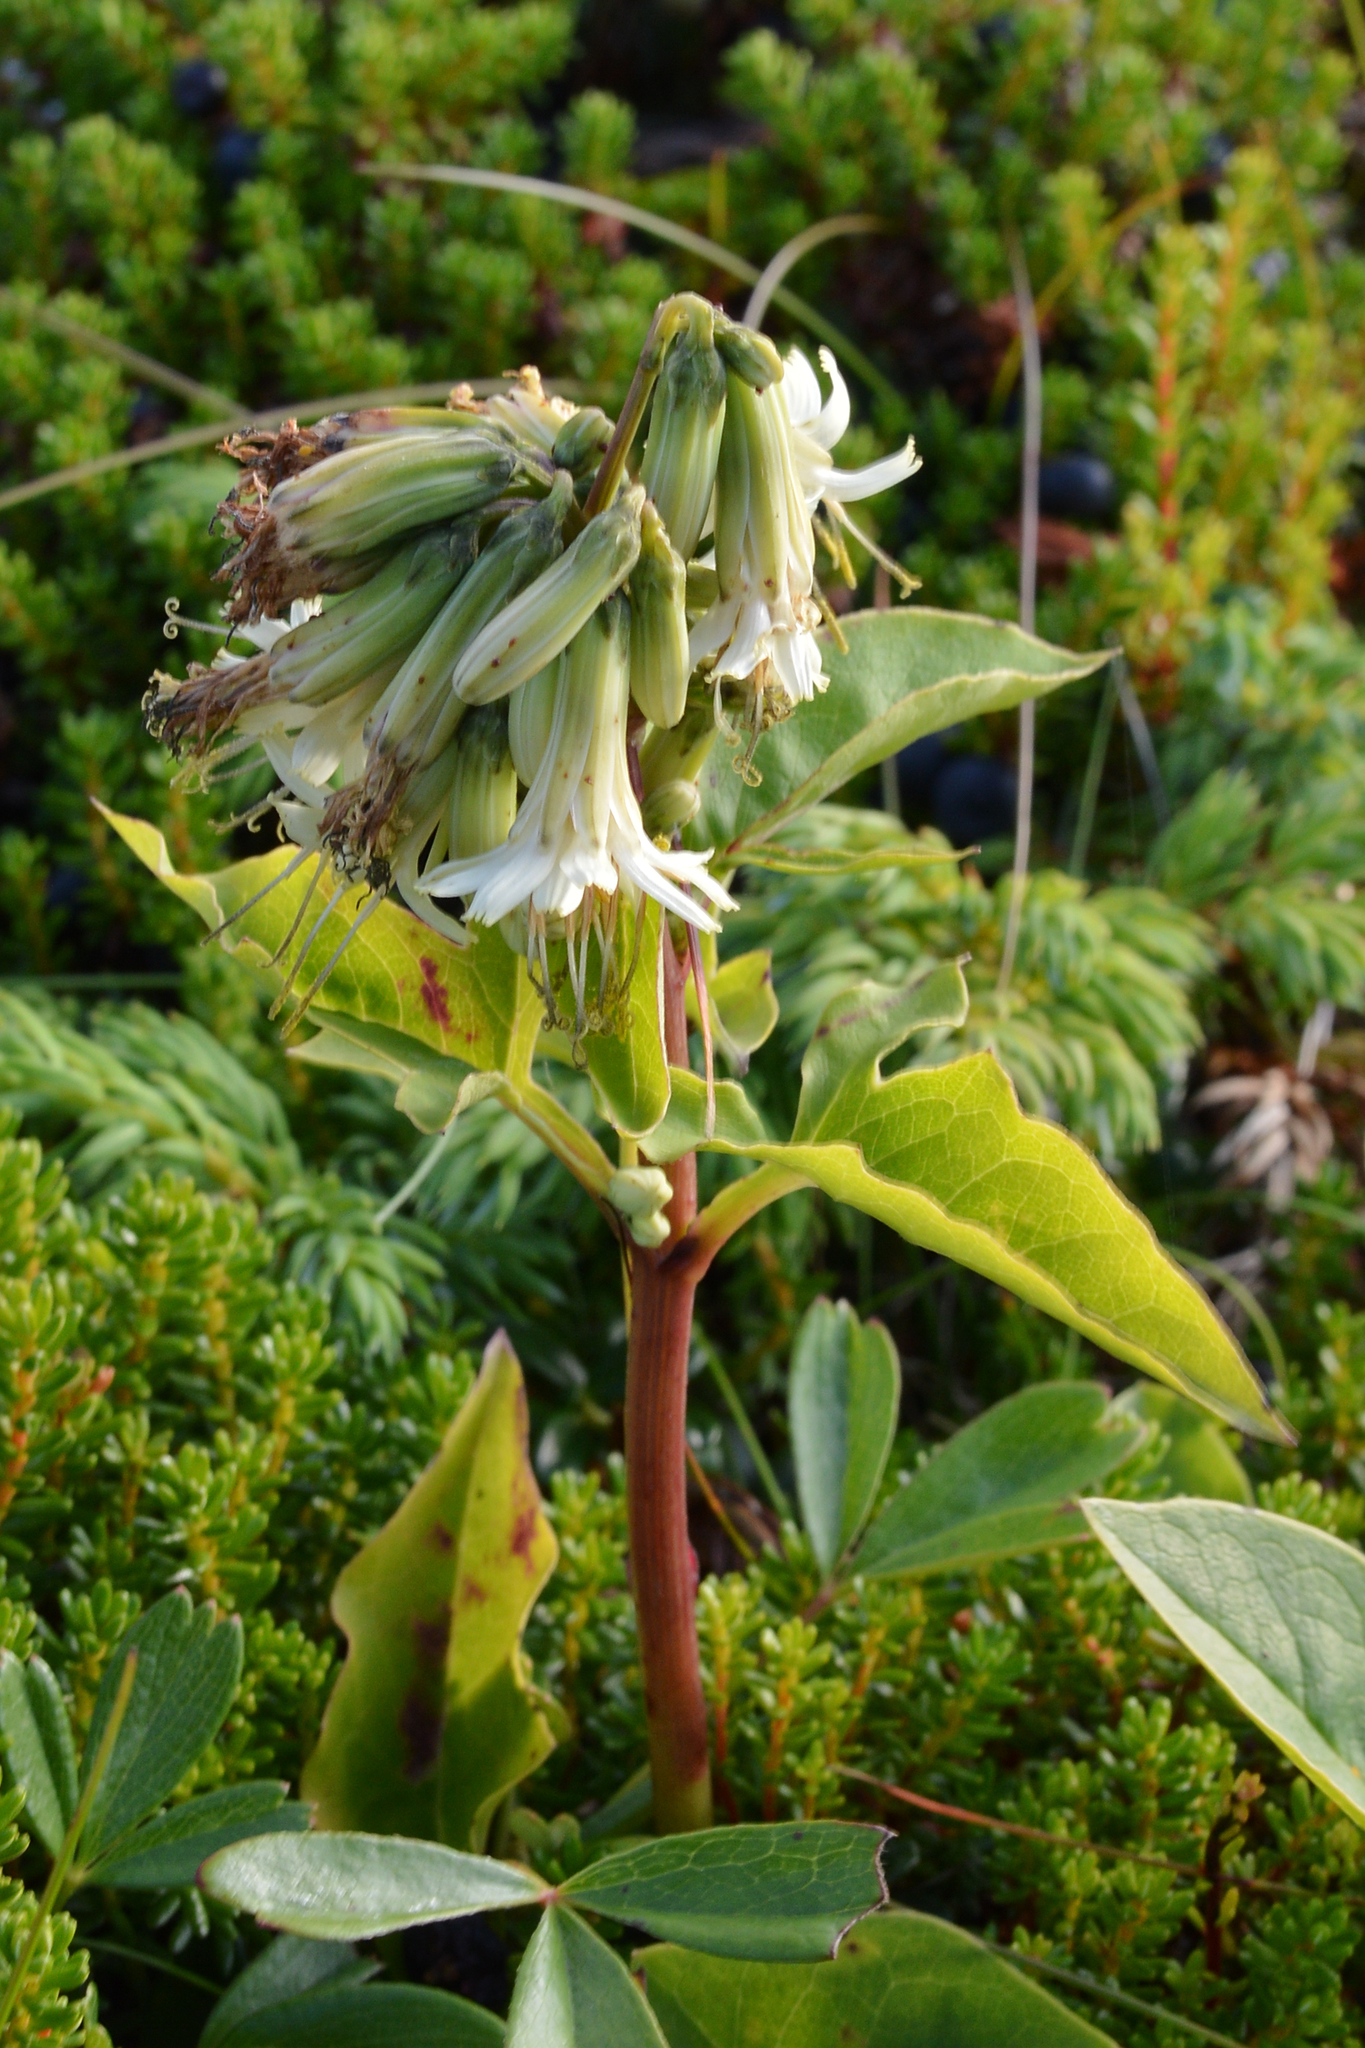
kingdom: Plantae
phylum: Tracheophyta
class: Magnoliopsida
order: Asterales
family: Asteraceae
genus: Nabalus
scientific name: Nabalus trifoliolatus
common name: Gall-of-the-earth
